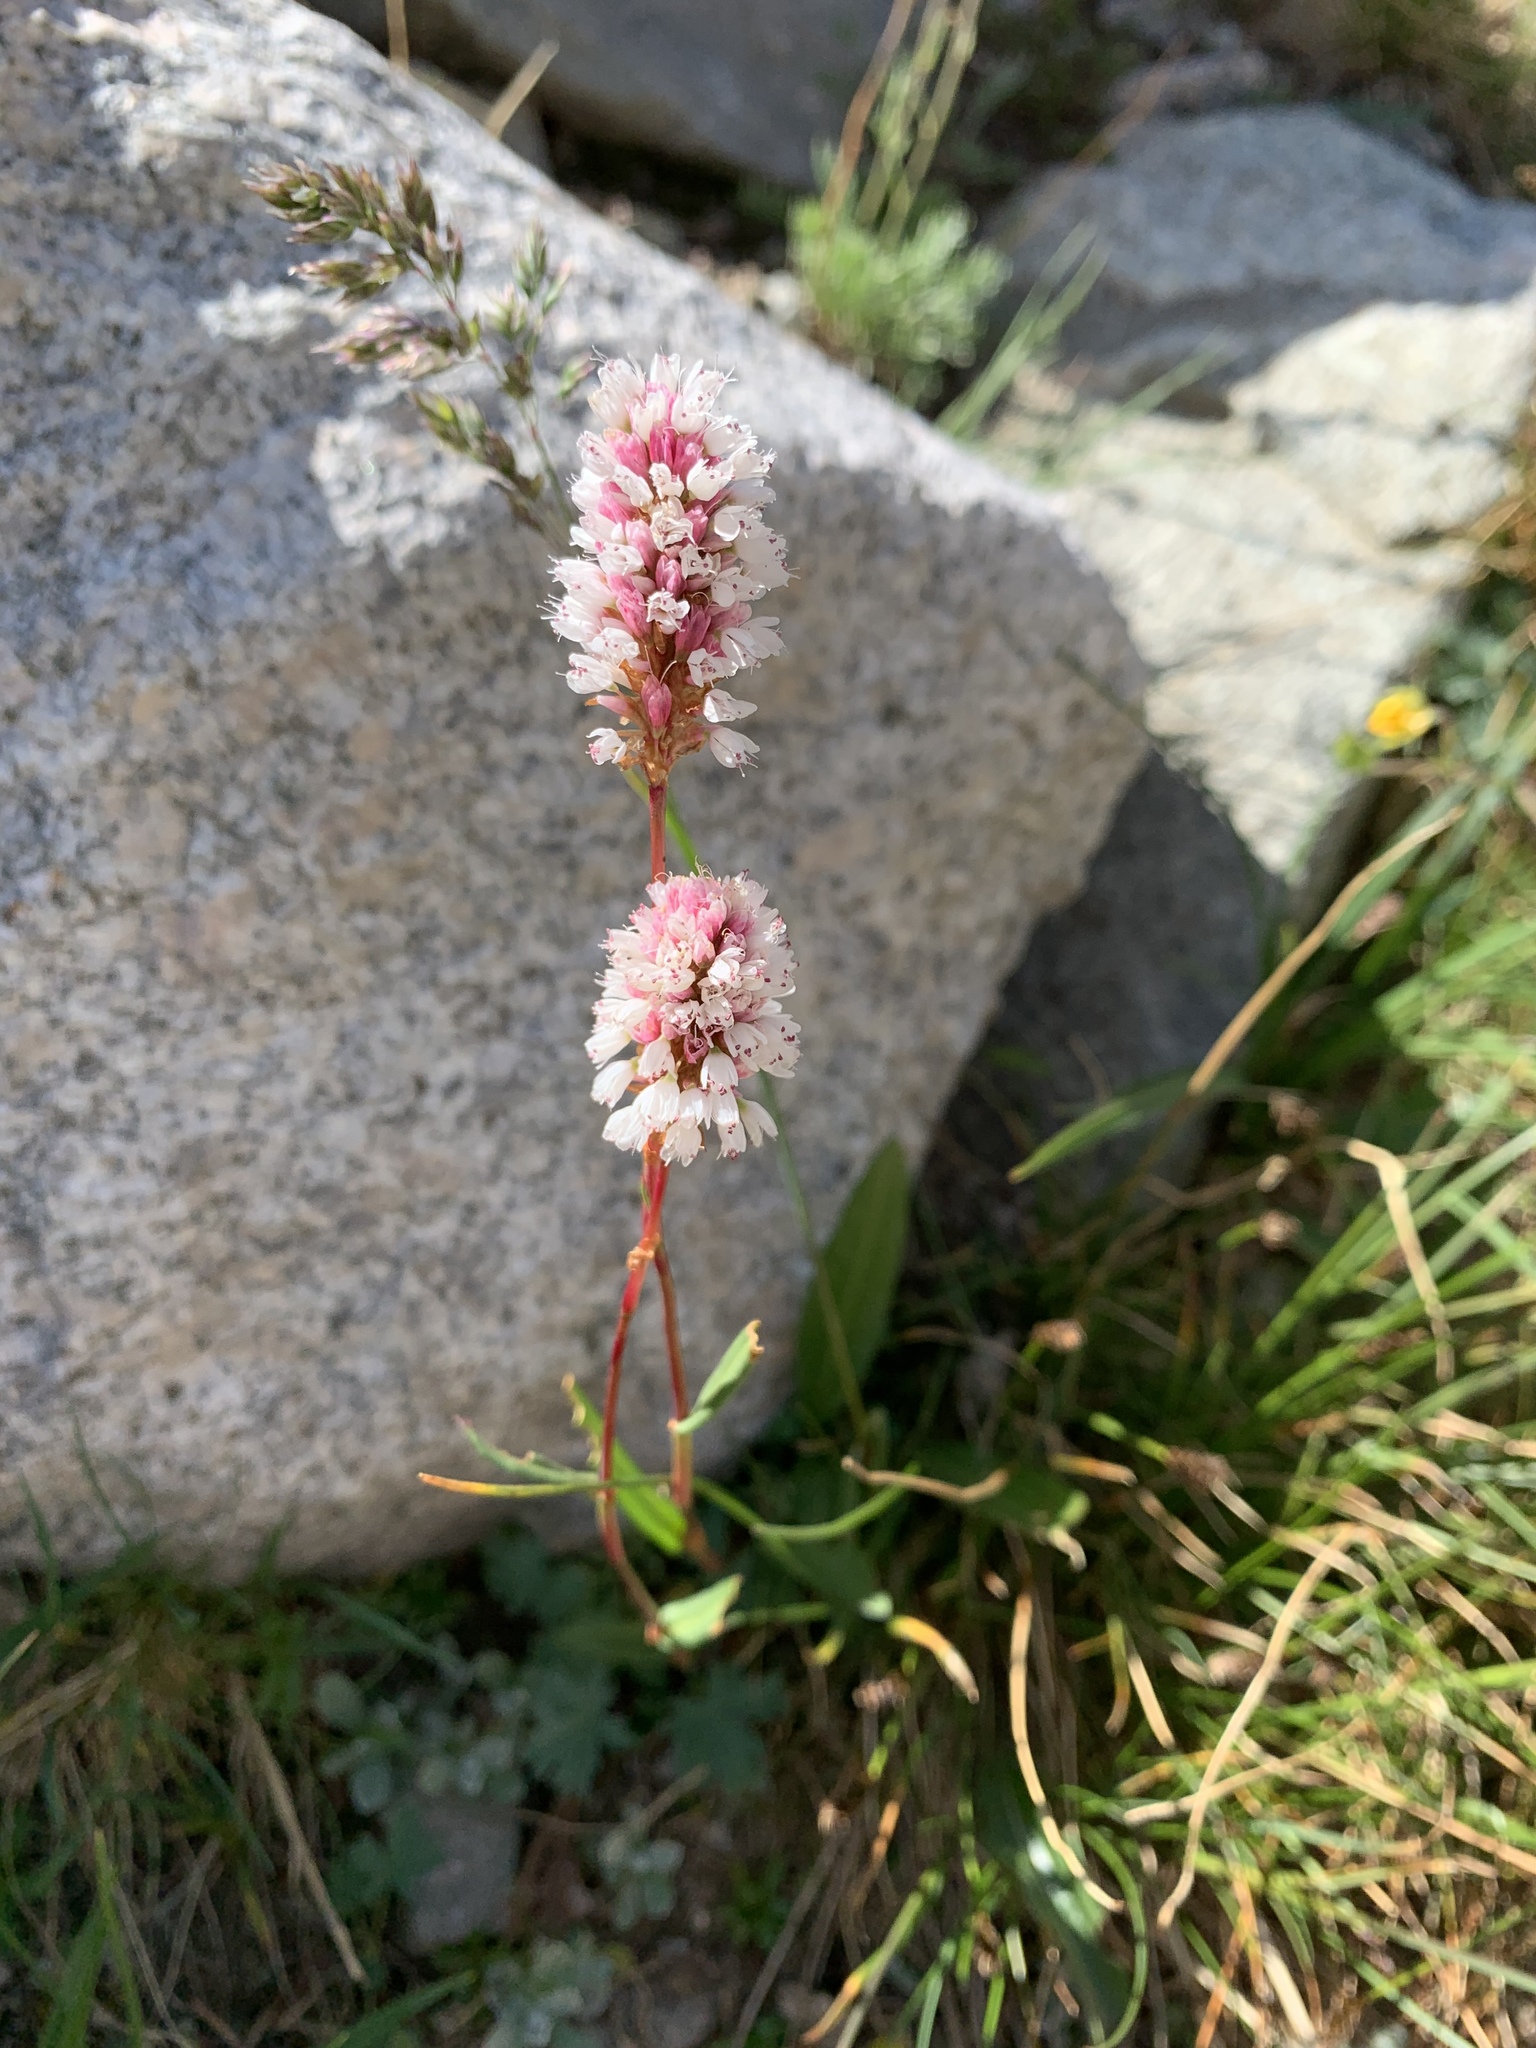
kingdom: Plantae
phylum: Tracheophyta
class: Magnoliopsida
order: Caryophyllales
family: Polygonaceae
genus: Bistorta
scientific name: Bistorta bistortoides
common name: American bistort
